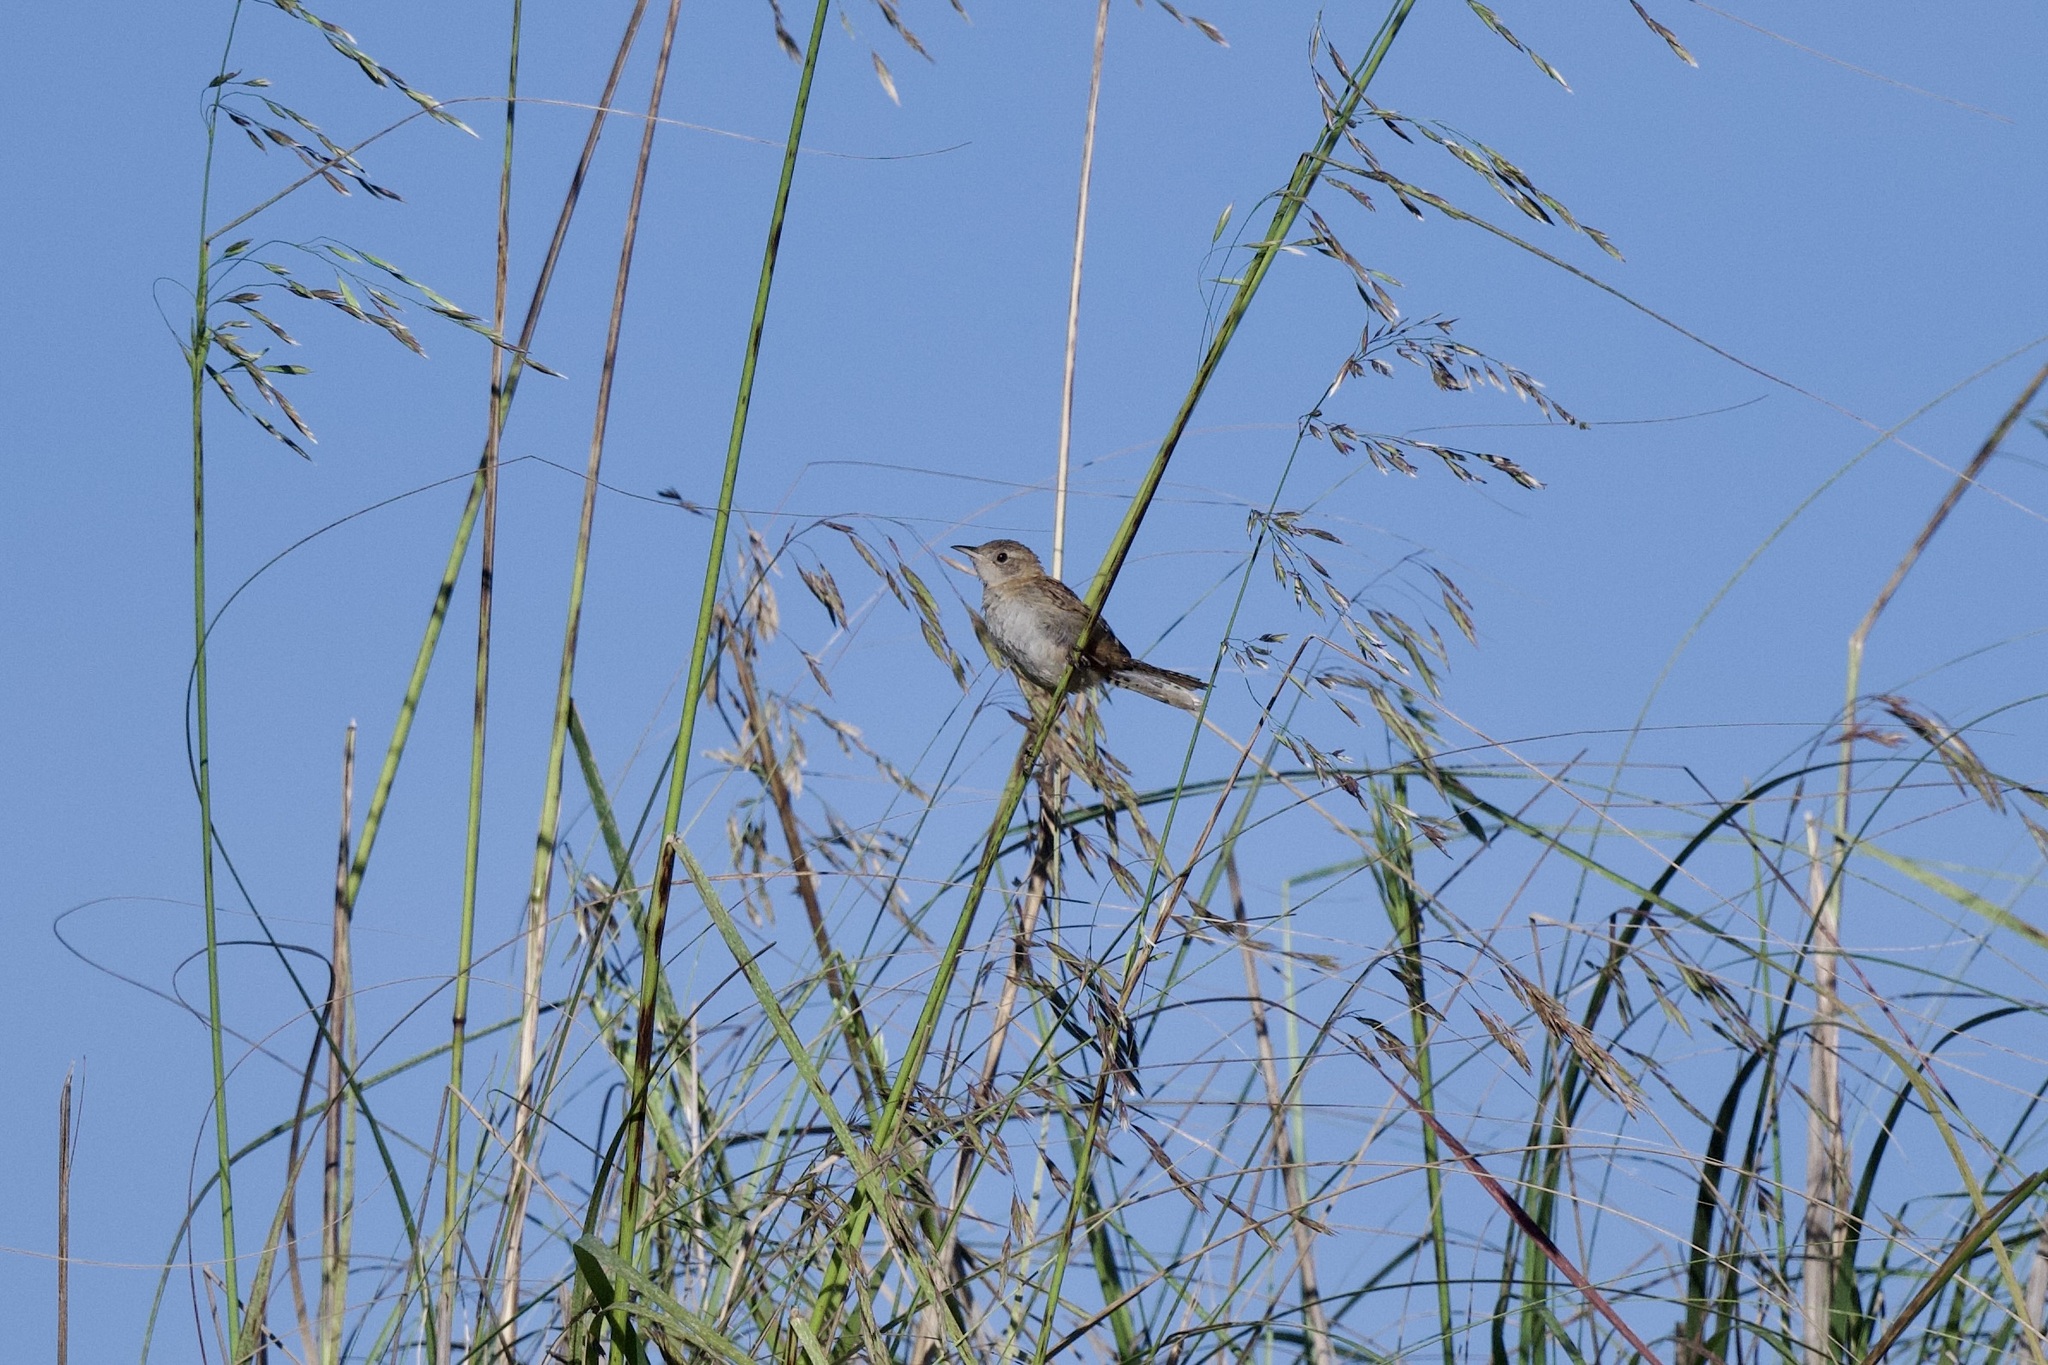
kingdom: Animalia
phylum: Chordata
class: Aves
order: Passeriformes
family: Troglodytidae
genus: Cistothorus
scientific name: Cistothorus platensis
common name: Sedge wren
